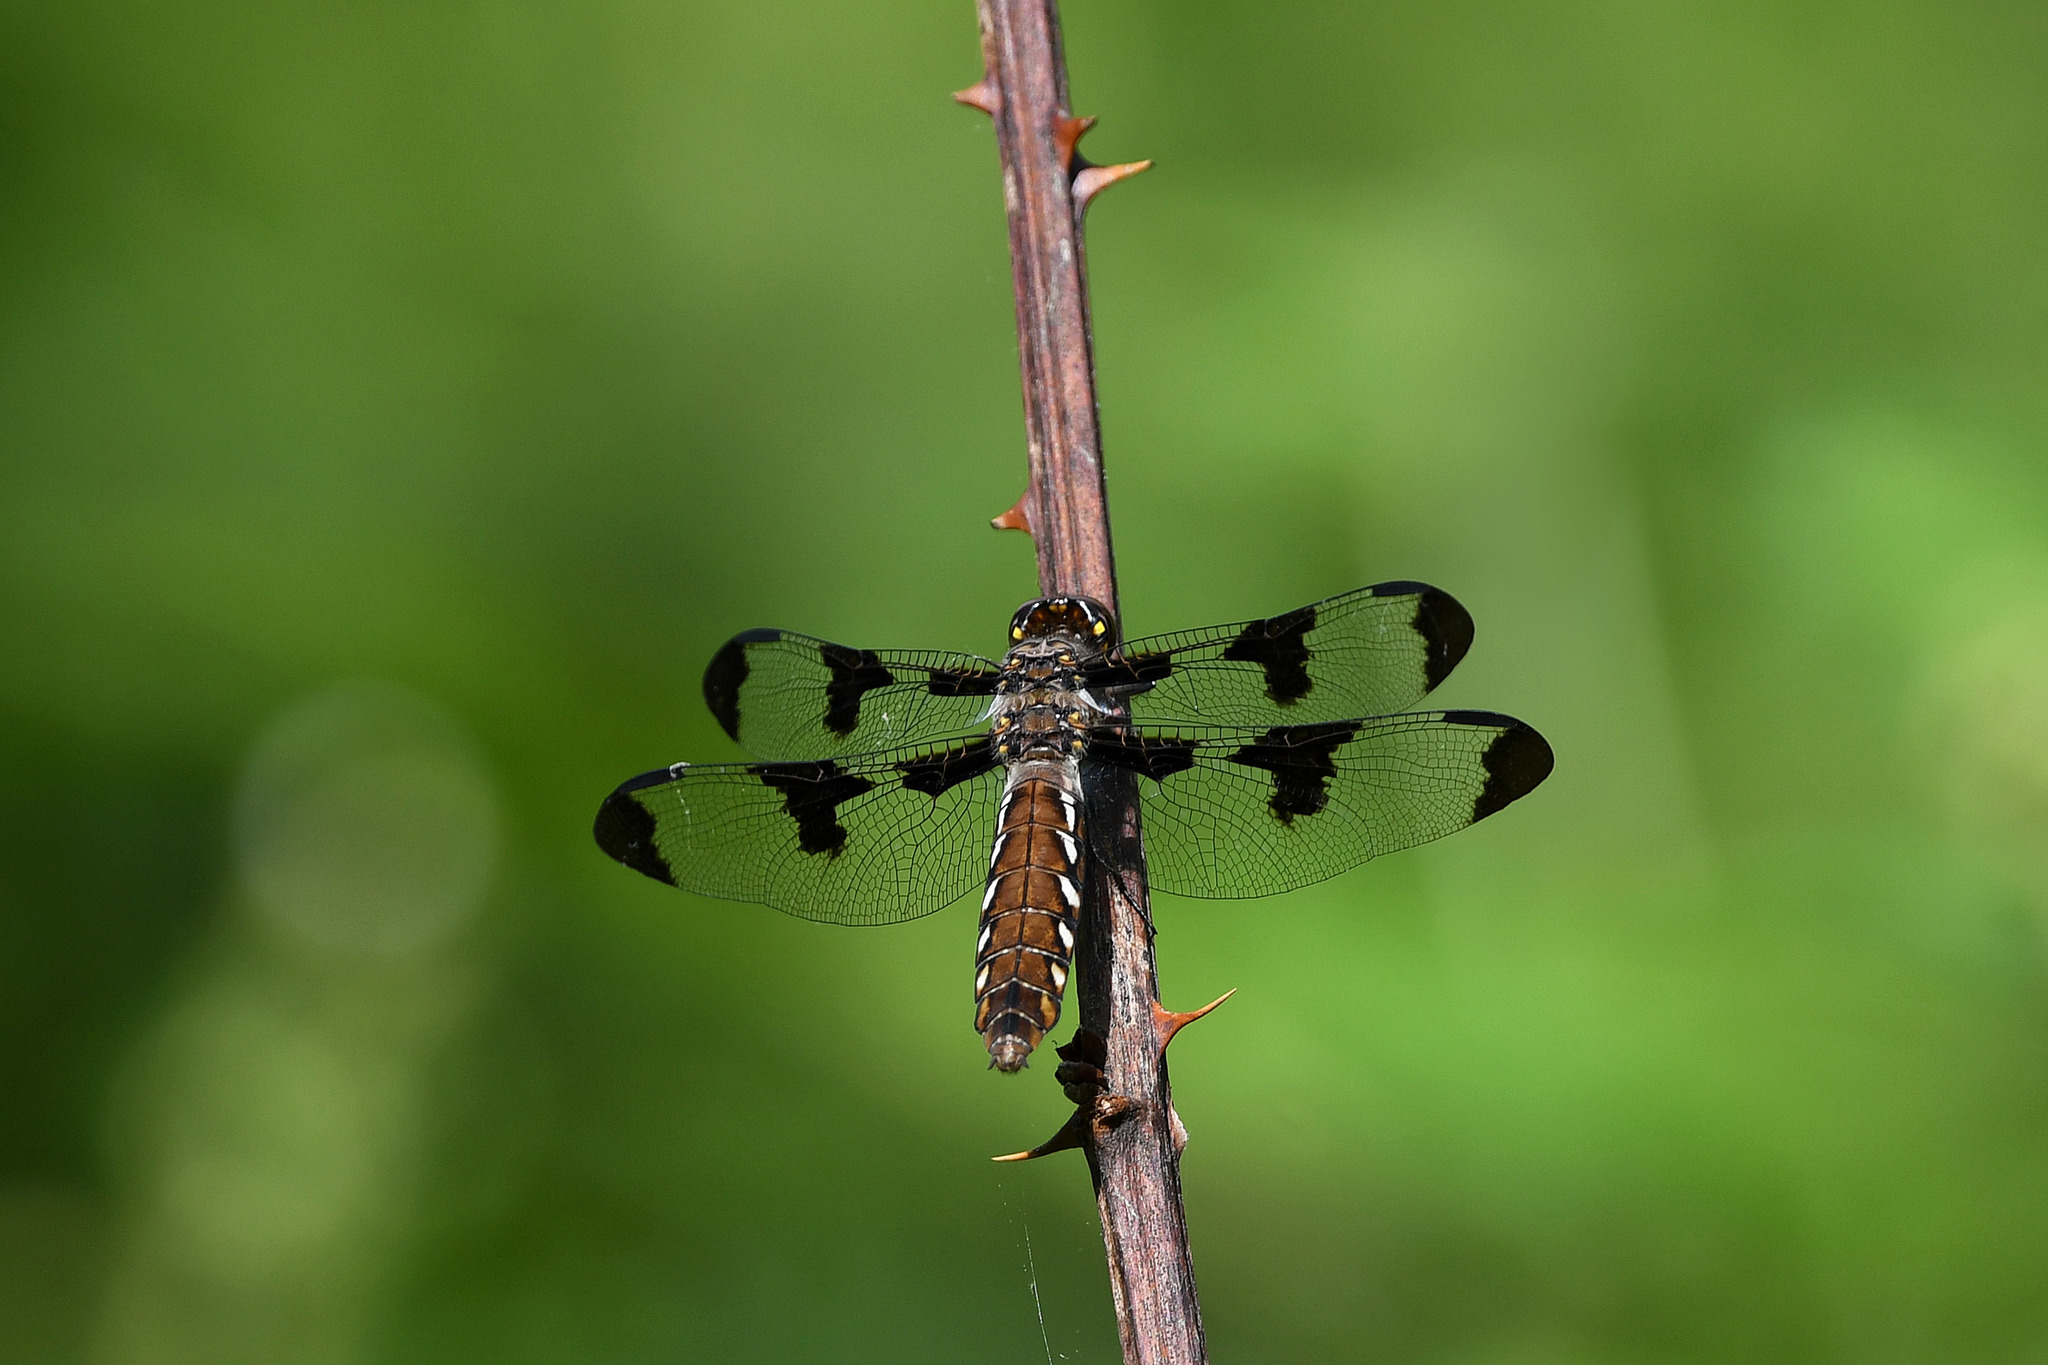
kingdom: Animalia
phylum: Arthropoda
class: Insecta
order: Odonata
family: Libellulidae
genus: Plathemis
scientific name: Plathemis lydia
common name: Common whitetail
